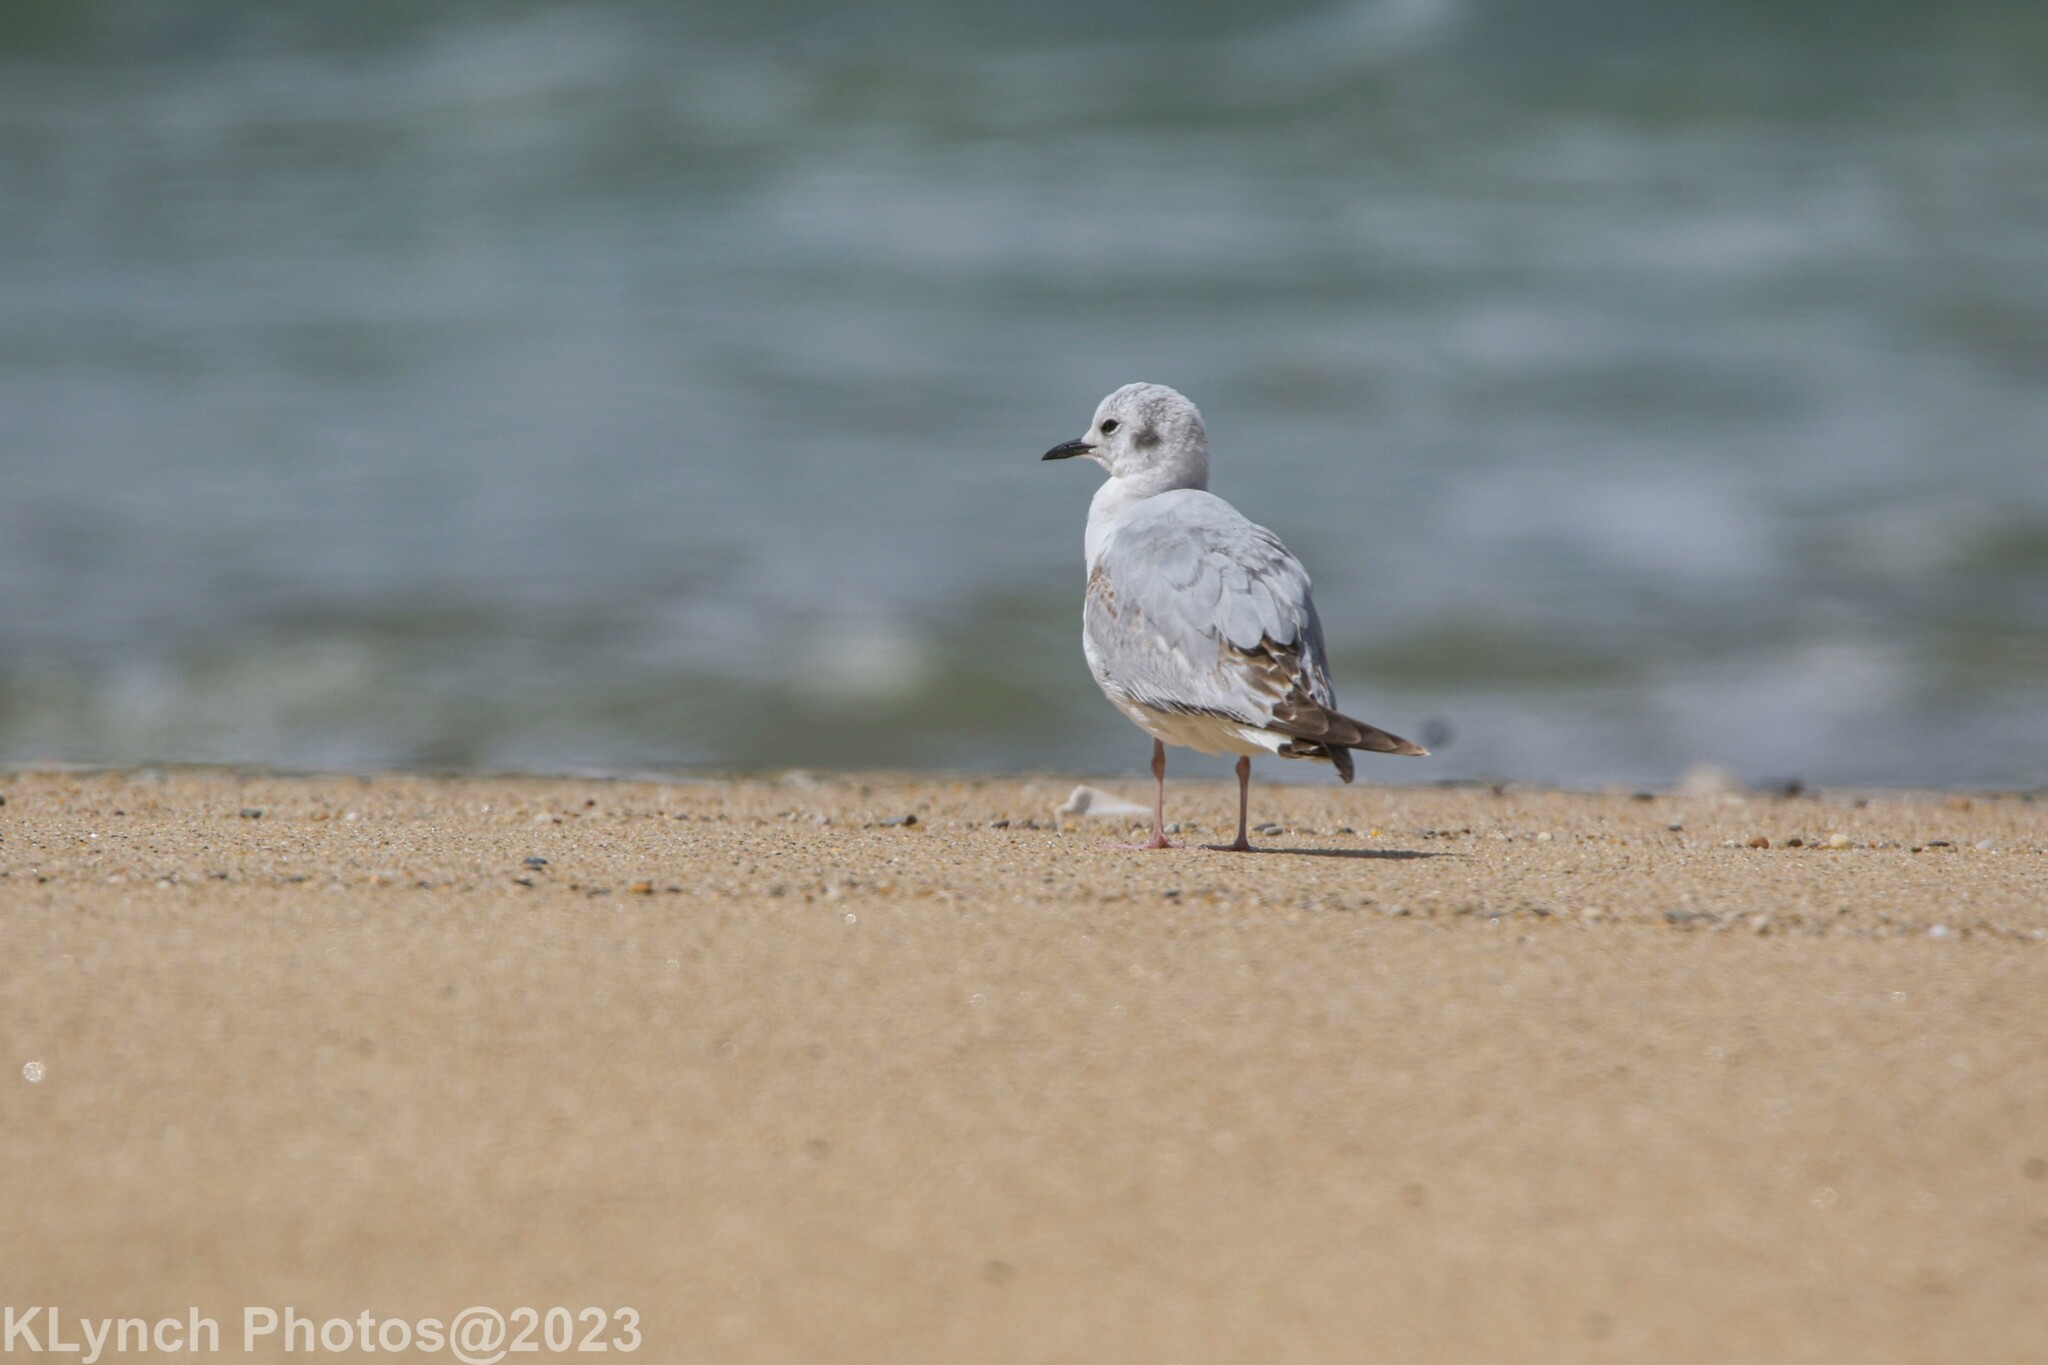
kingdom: Animalia
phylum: Chordata
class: Aves
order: Charadriiformes
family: Laridae
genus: Chroicocephalus
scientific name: Chroicocephalus philadelphia
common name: Bonaparte's gull
